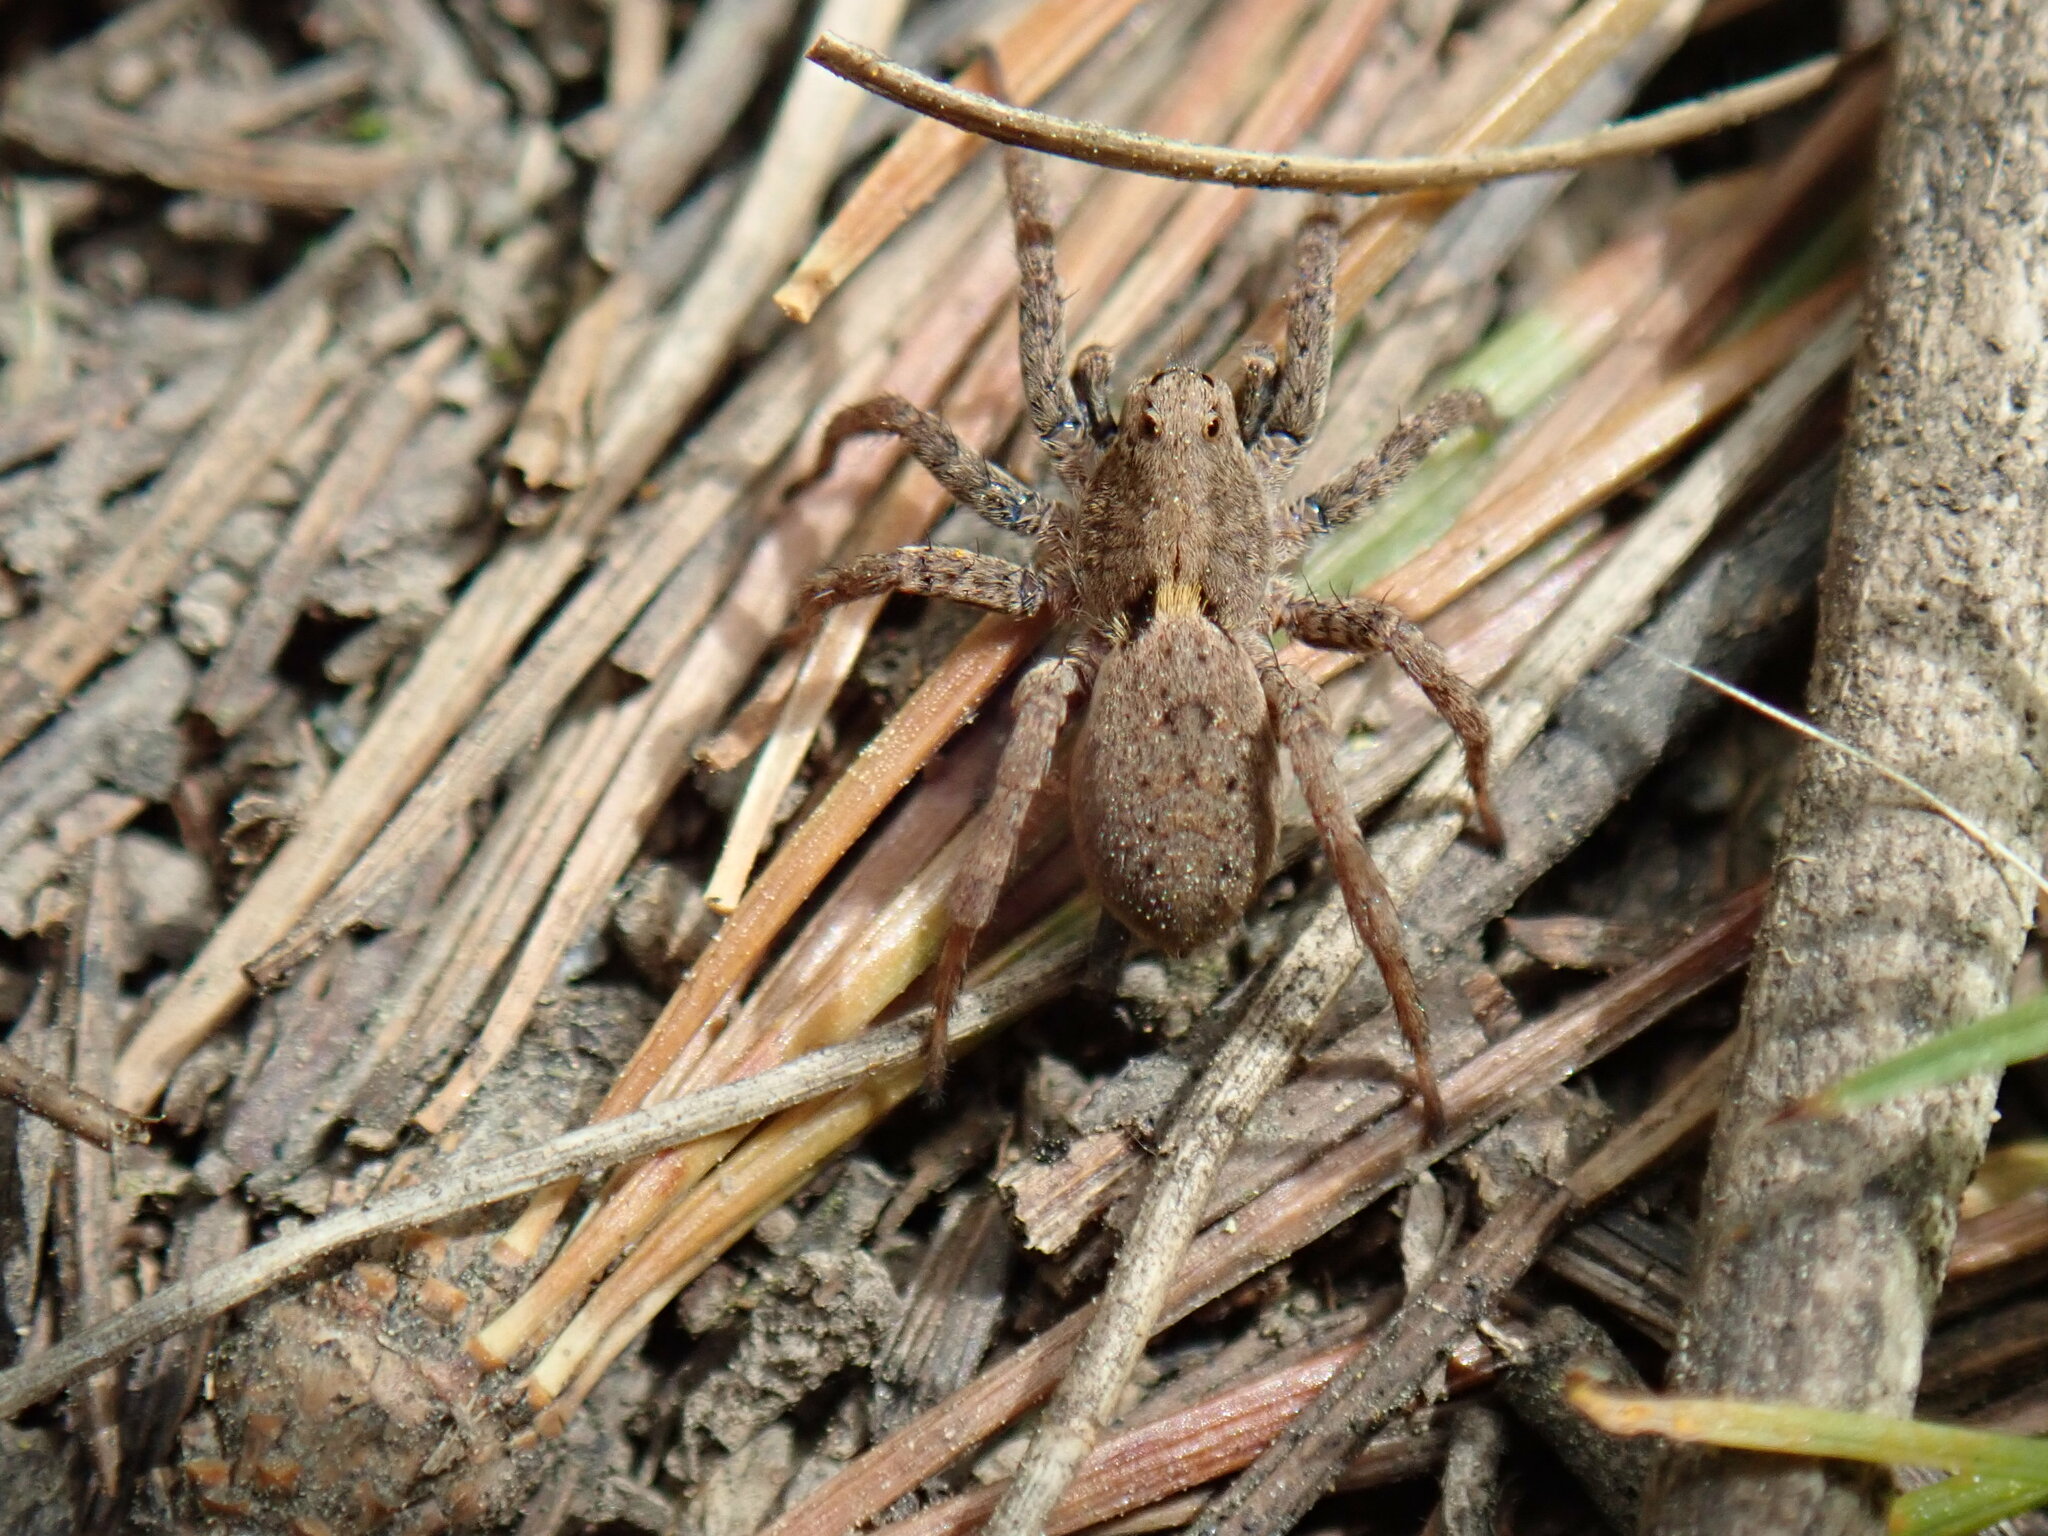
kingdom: Animalia
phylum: Arthropoda
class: Arachnida
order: Araneae
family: Lycosidae
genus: Alopecosa
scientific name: Alopecosa albofasciata
